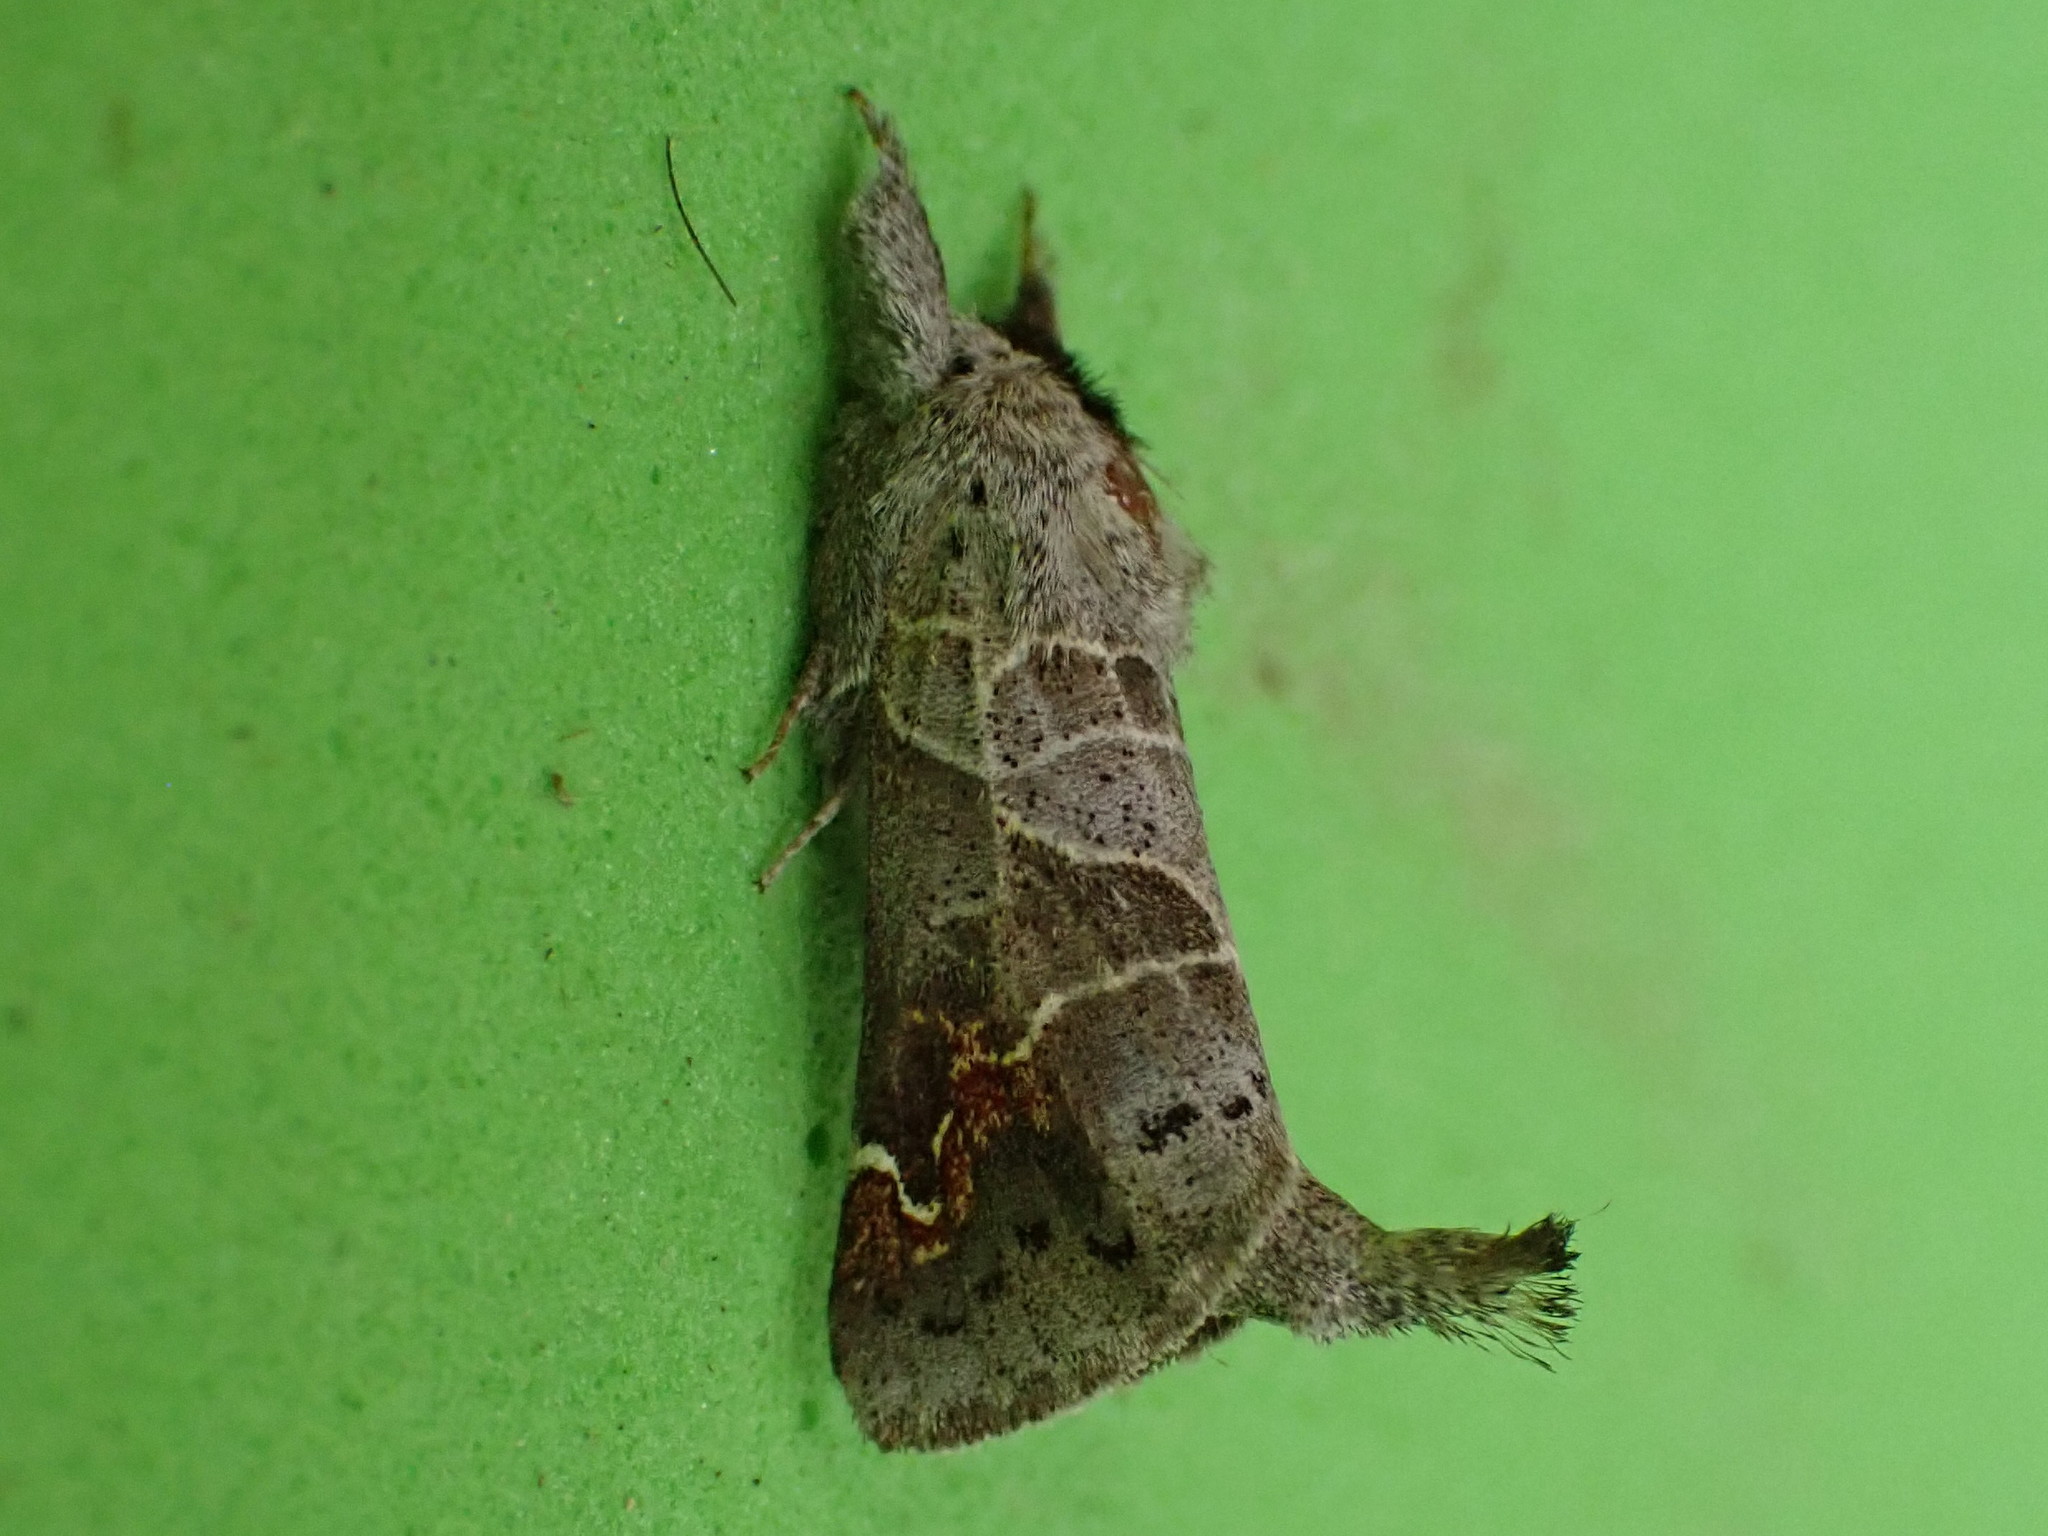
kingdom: Animalia
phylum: Arthropoda
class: Insecta
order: Lepidoptera
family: Notodontidae
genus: Clostera
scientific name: Clostera apicalis
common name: Apical prominent
